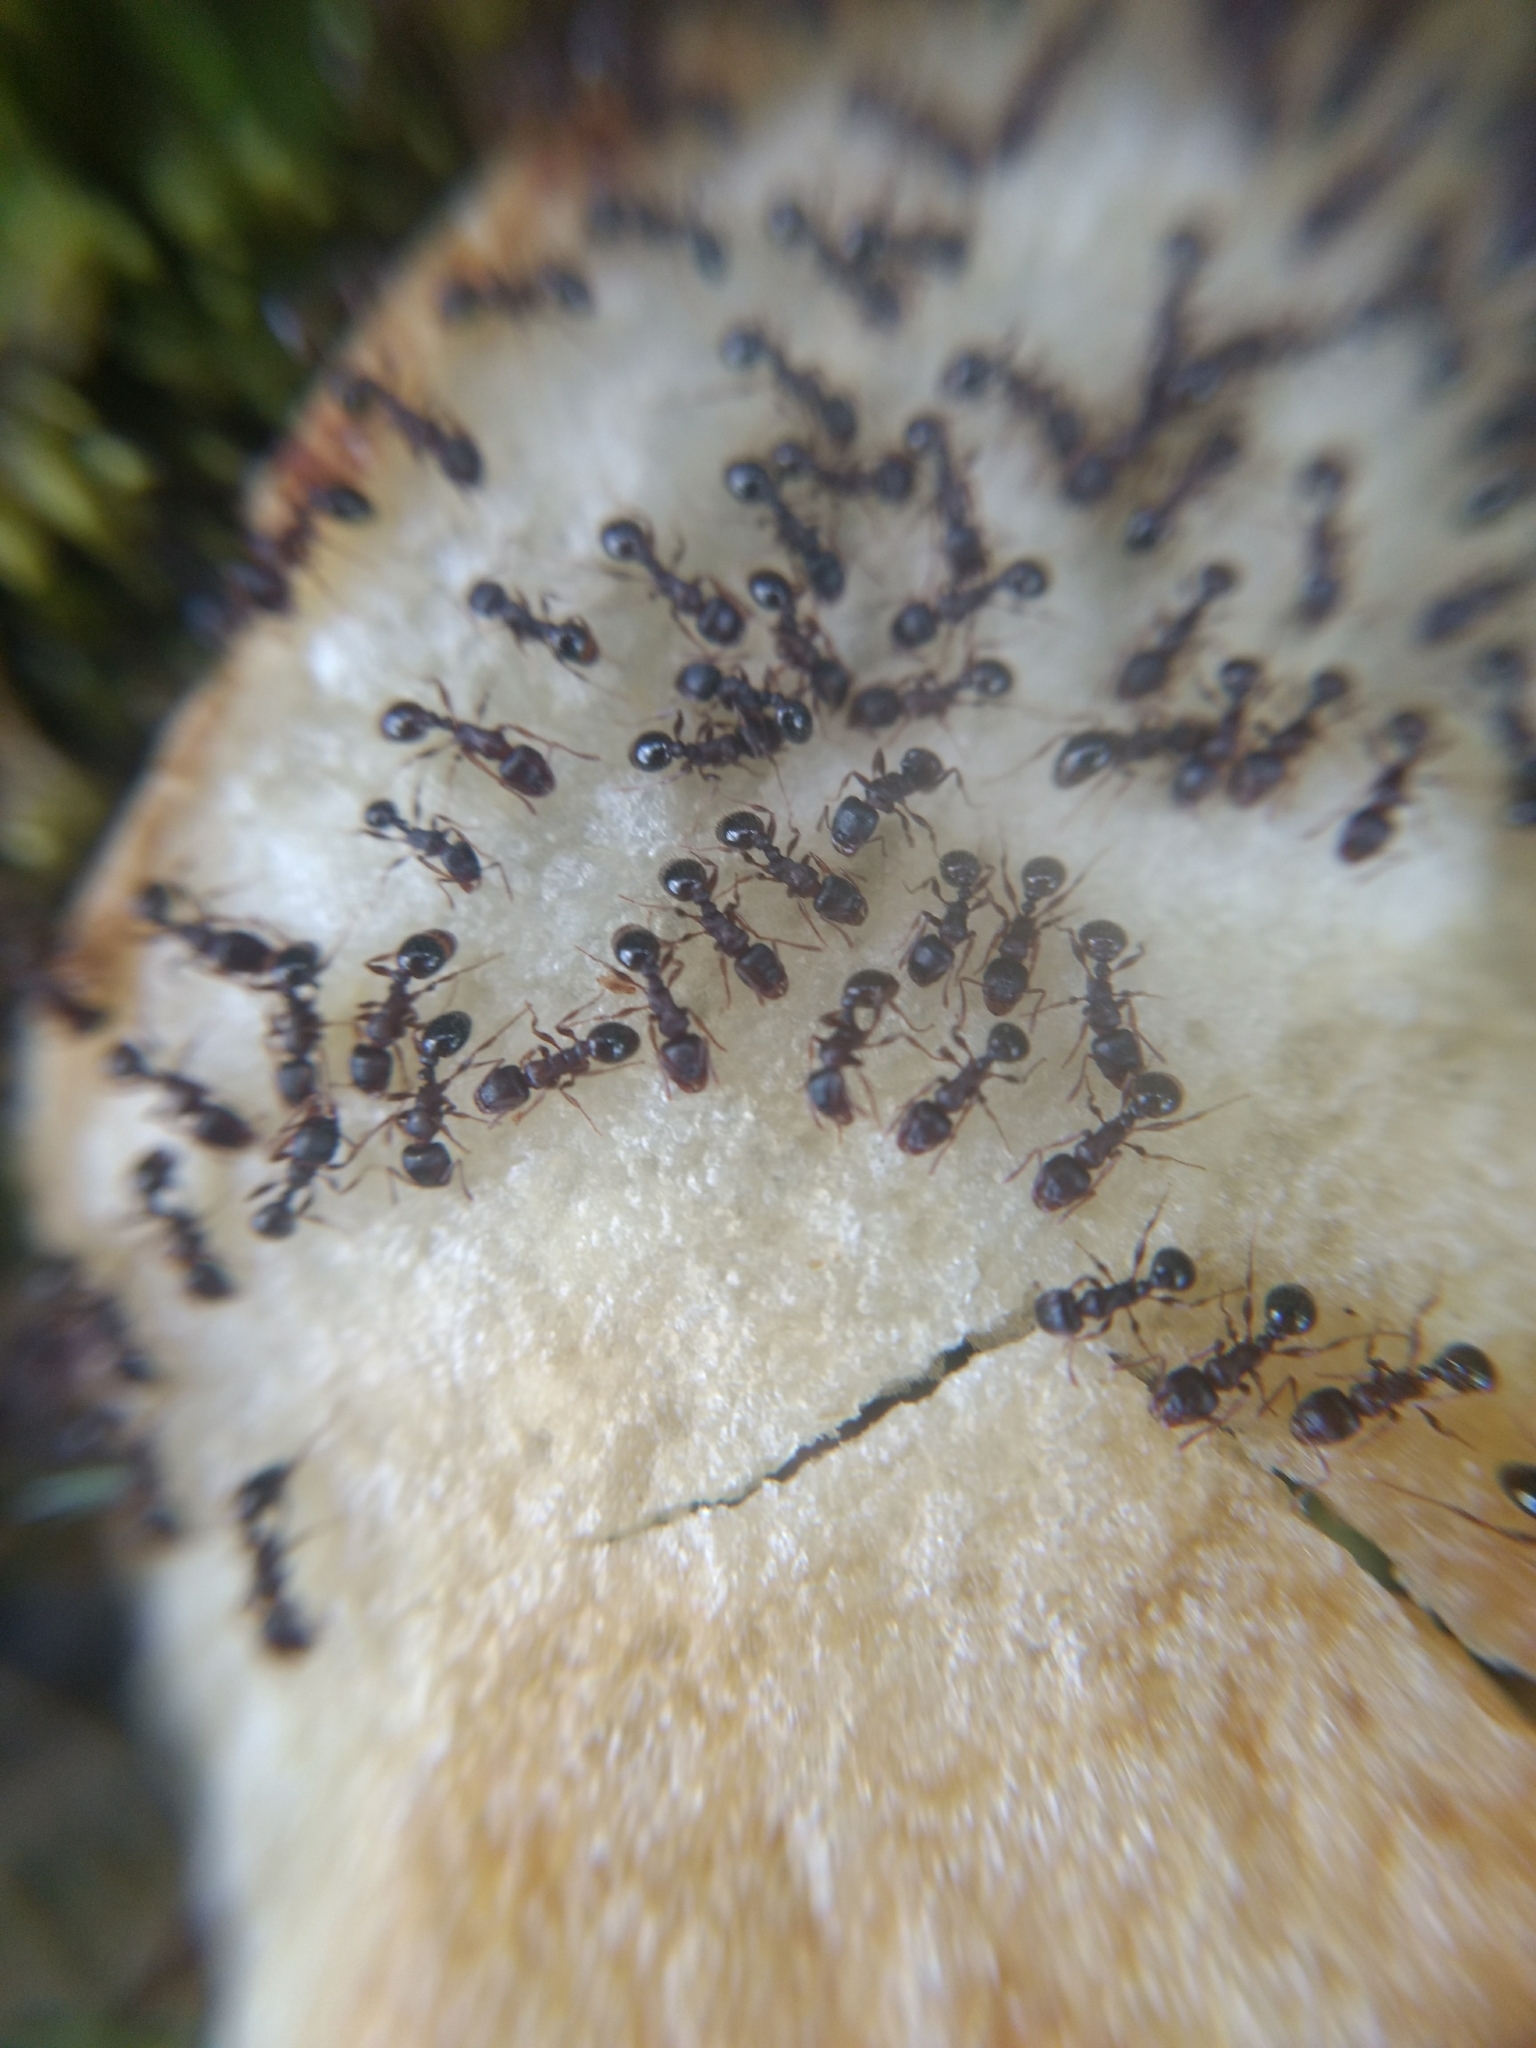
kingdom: Animalia
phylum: Arthropoda
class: Insecta
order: Hymenoptera
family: Formicidae
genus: Tapinoma
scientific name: Tapinoma sessile
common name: Odorous house ant
